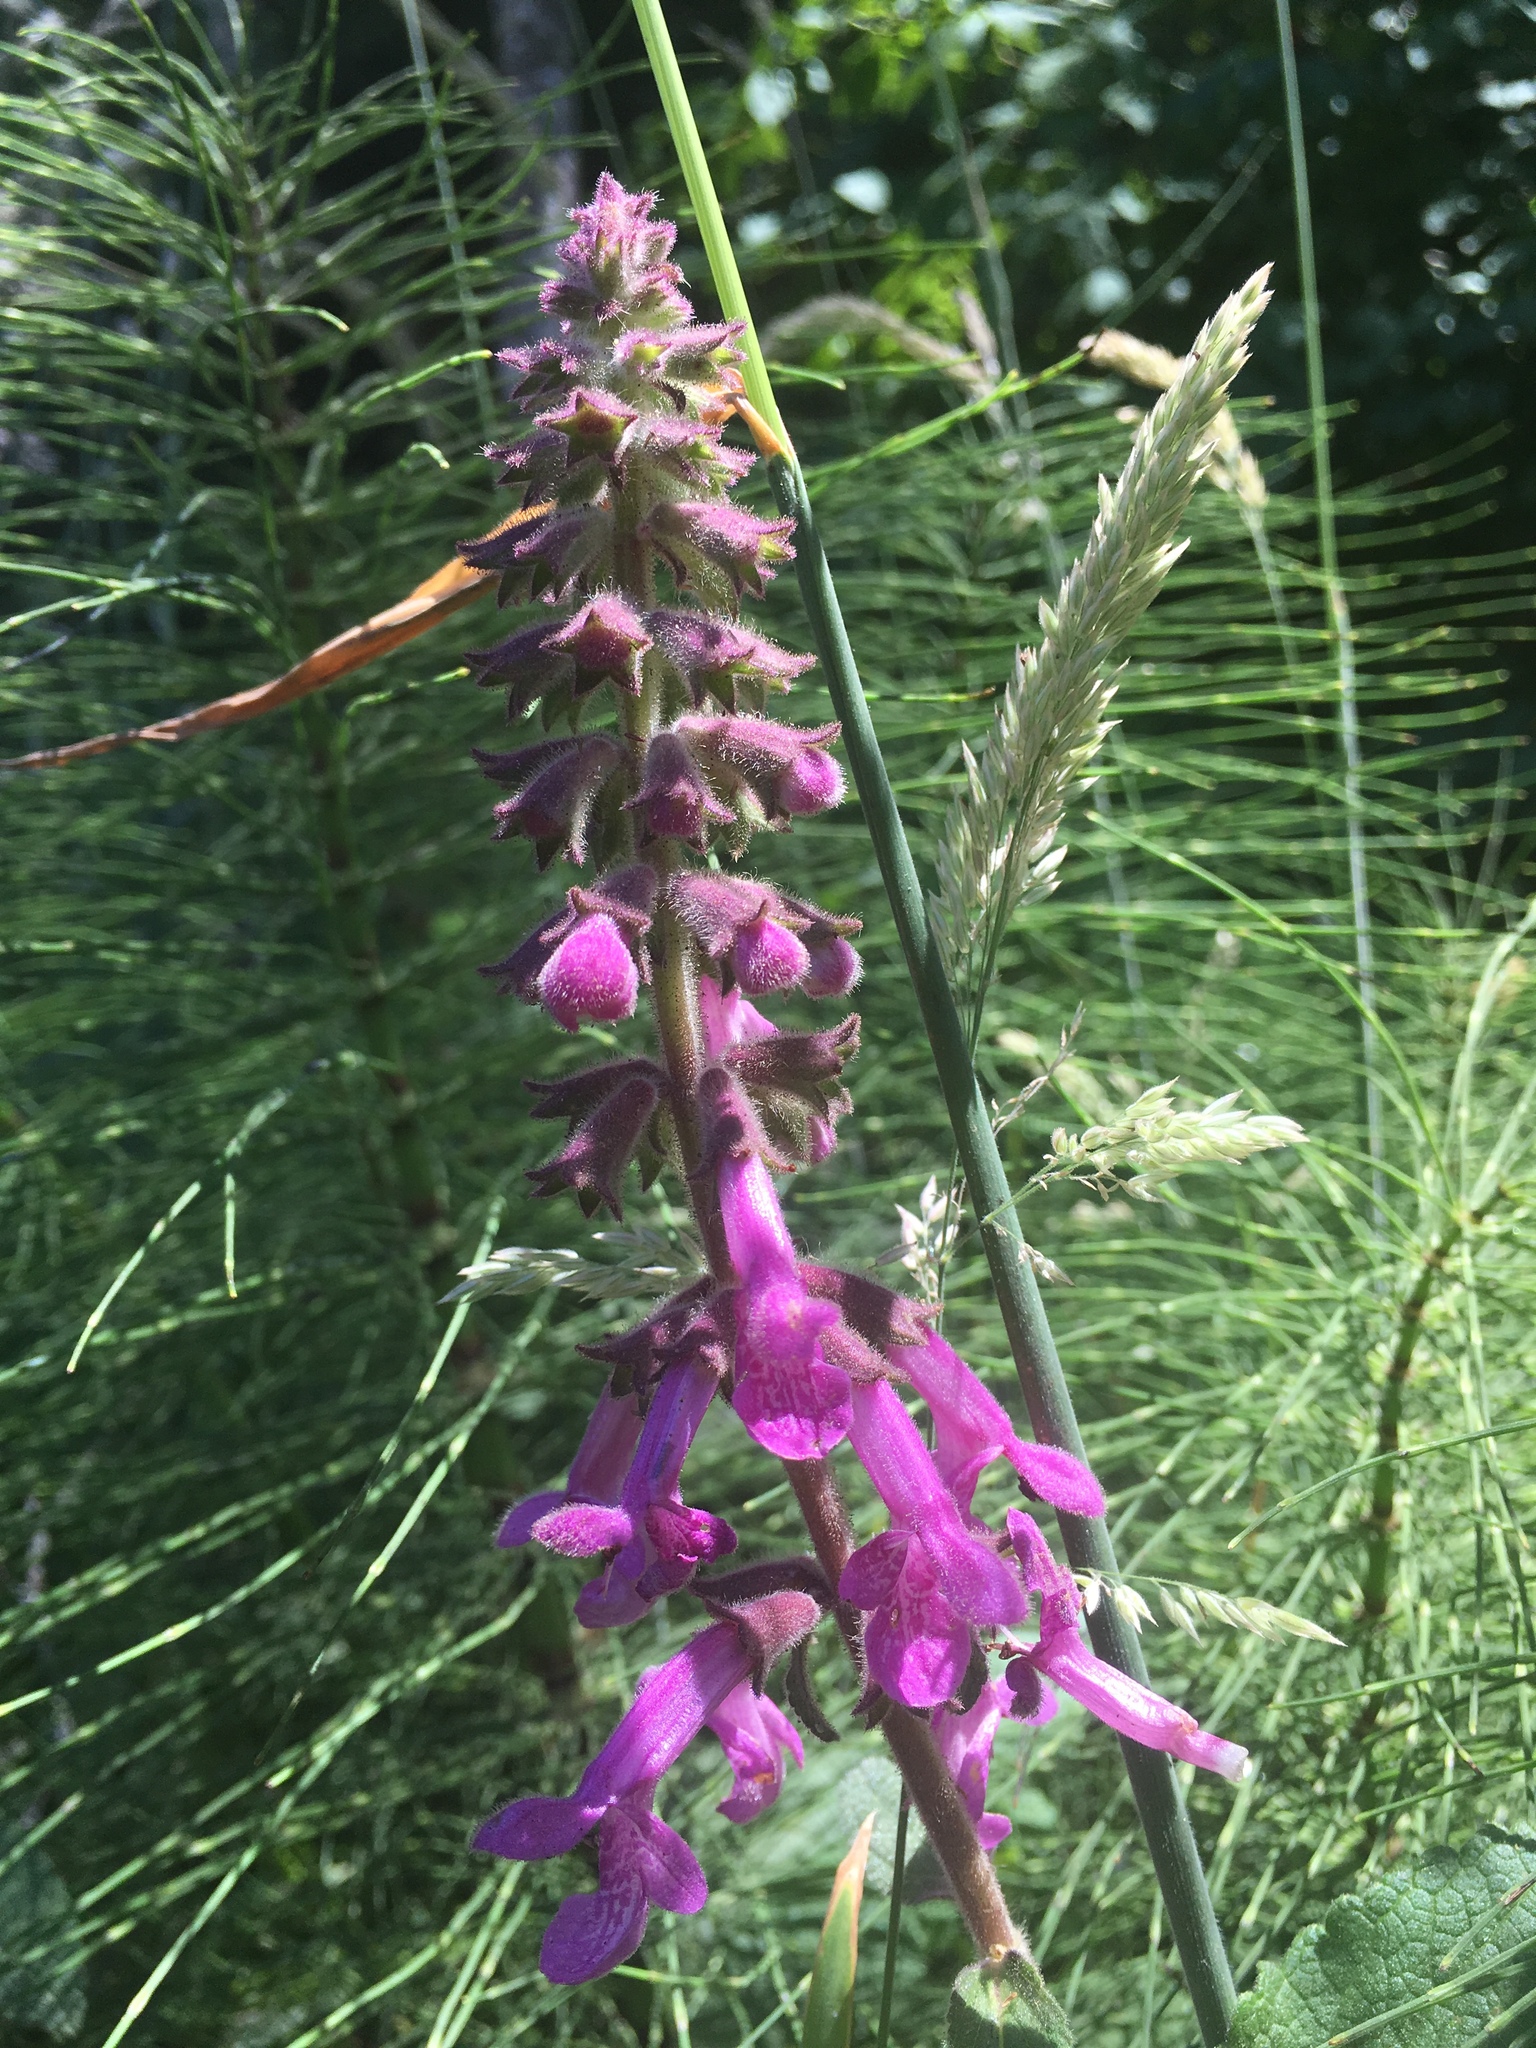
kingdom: Plantae
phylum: Tracheophyta
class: Magnoliopsida
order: Lamiales
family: Lamiaceae
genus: Stachys
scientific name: Stachys chamissonis
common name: Coastal hedge-nettle
